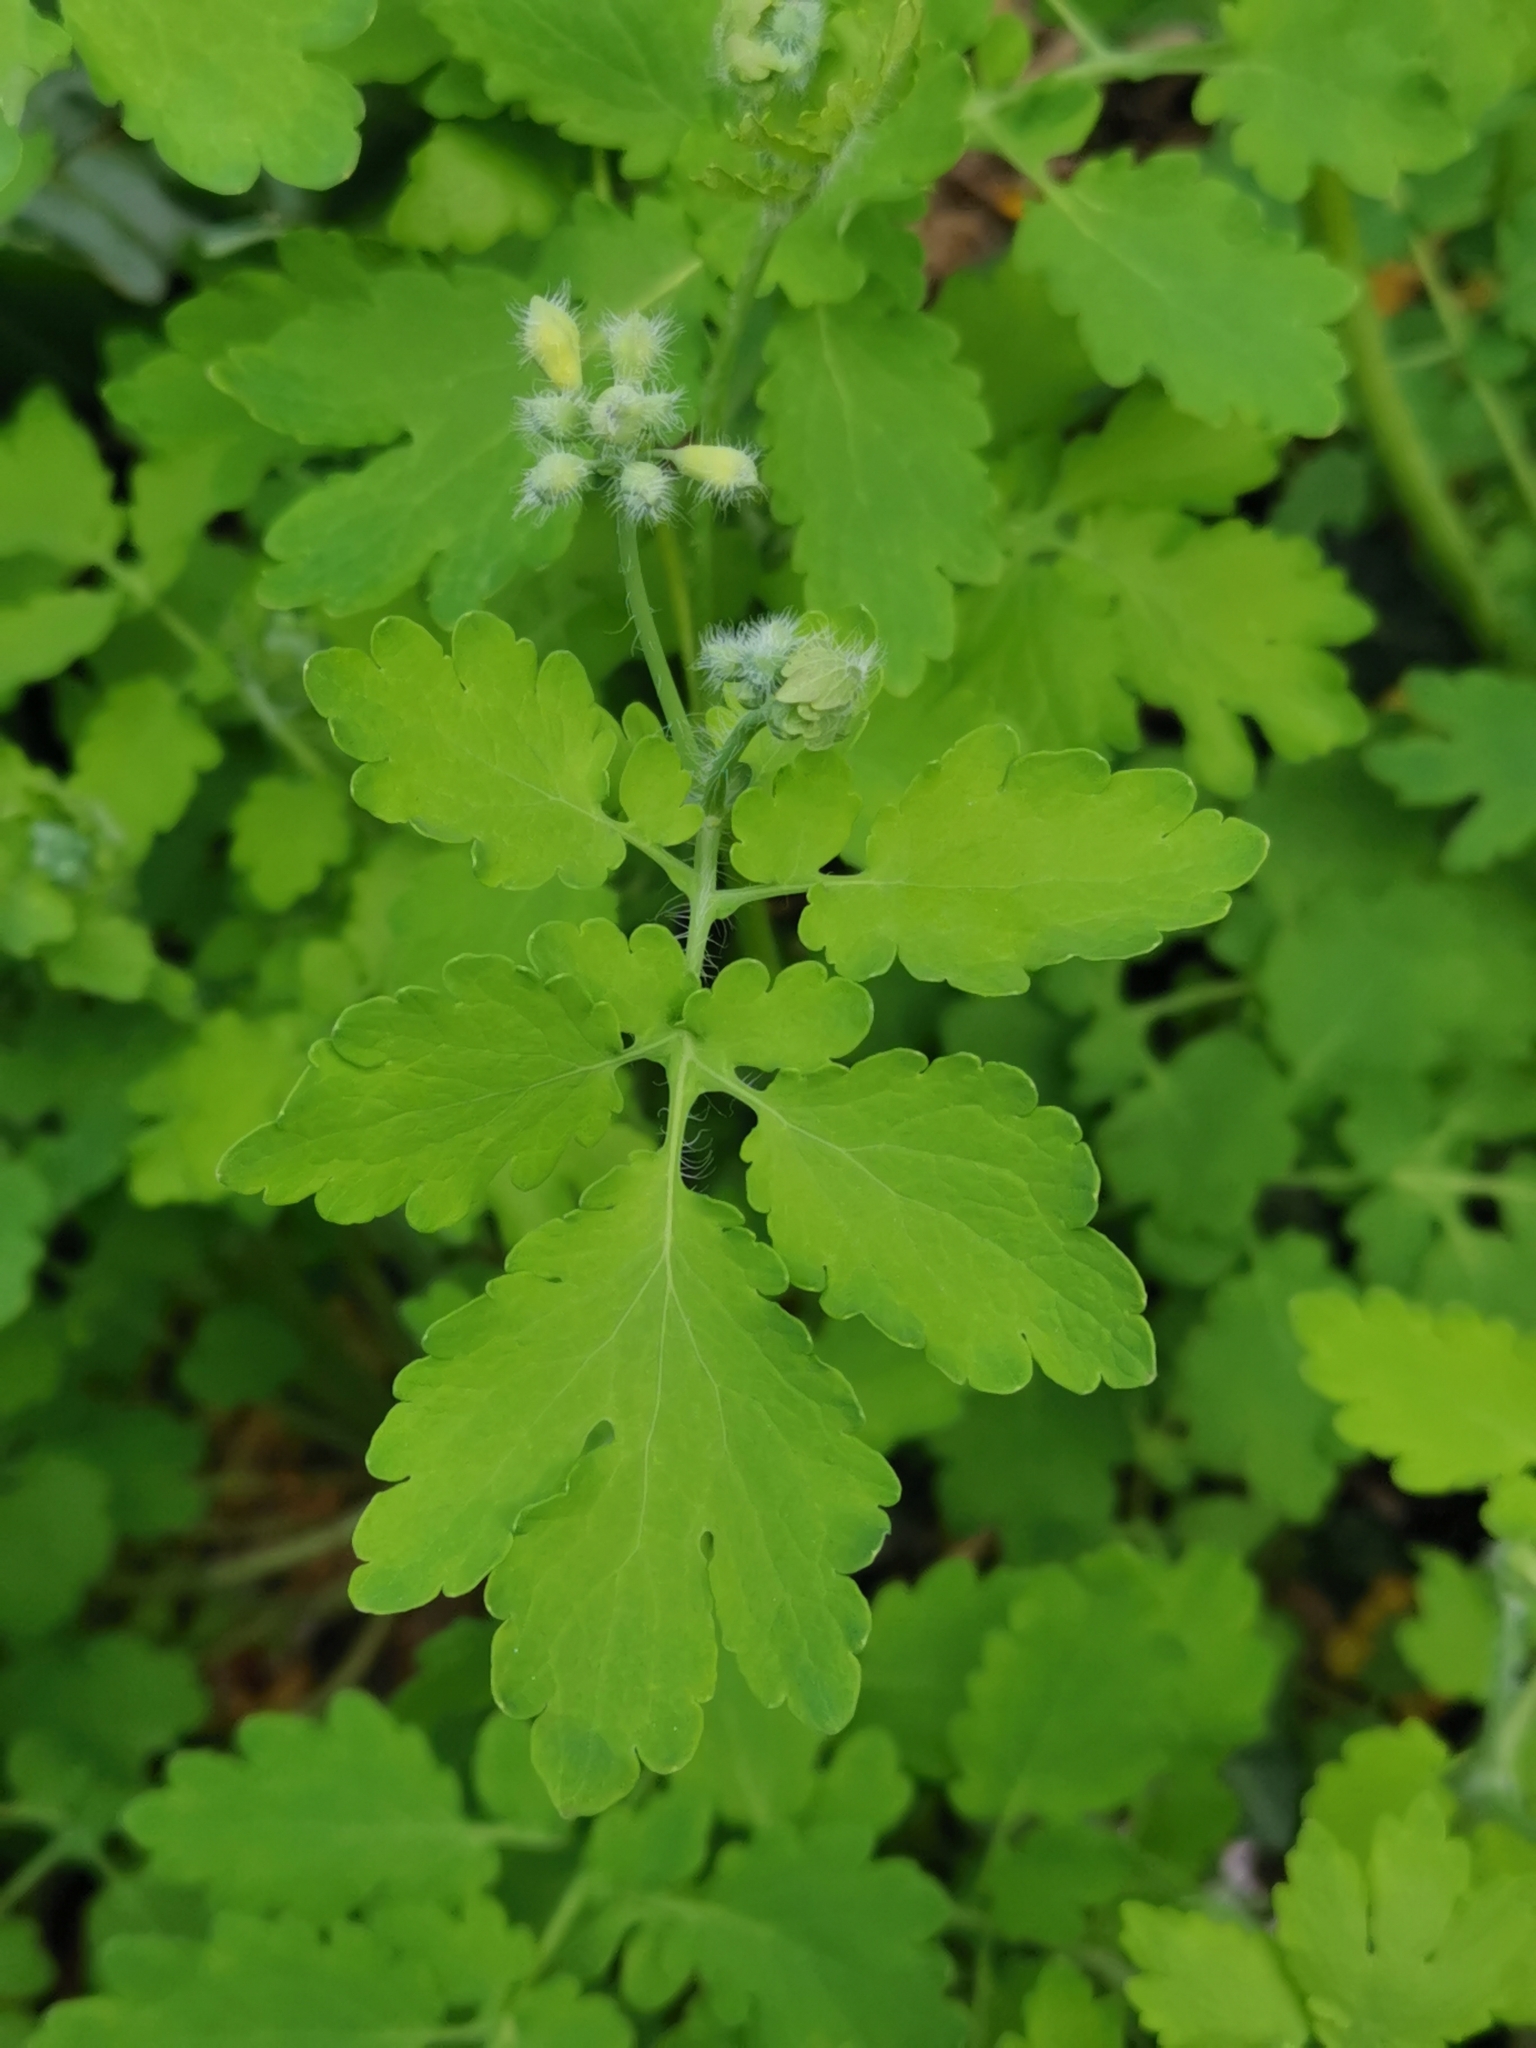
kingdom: Plantae
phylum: Tracheophyta
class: Magnoliopsida
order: Ranunculales
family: Papaveraceae
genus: Chelidonium
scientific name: Chelidonium majus
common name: Greater celandine
